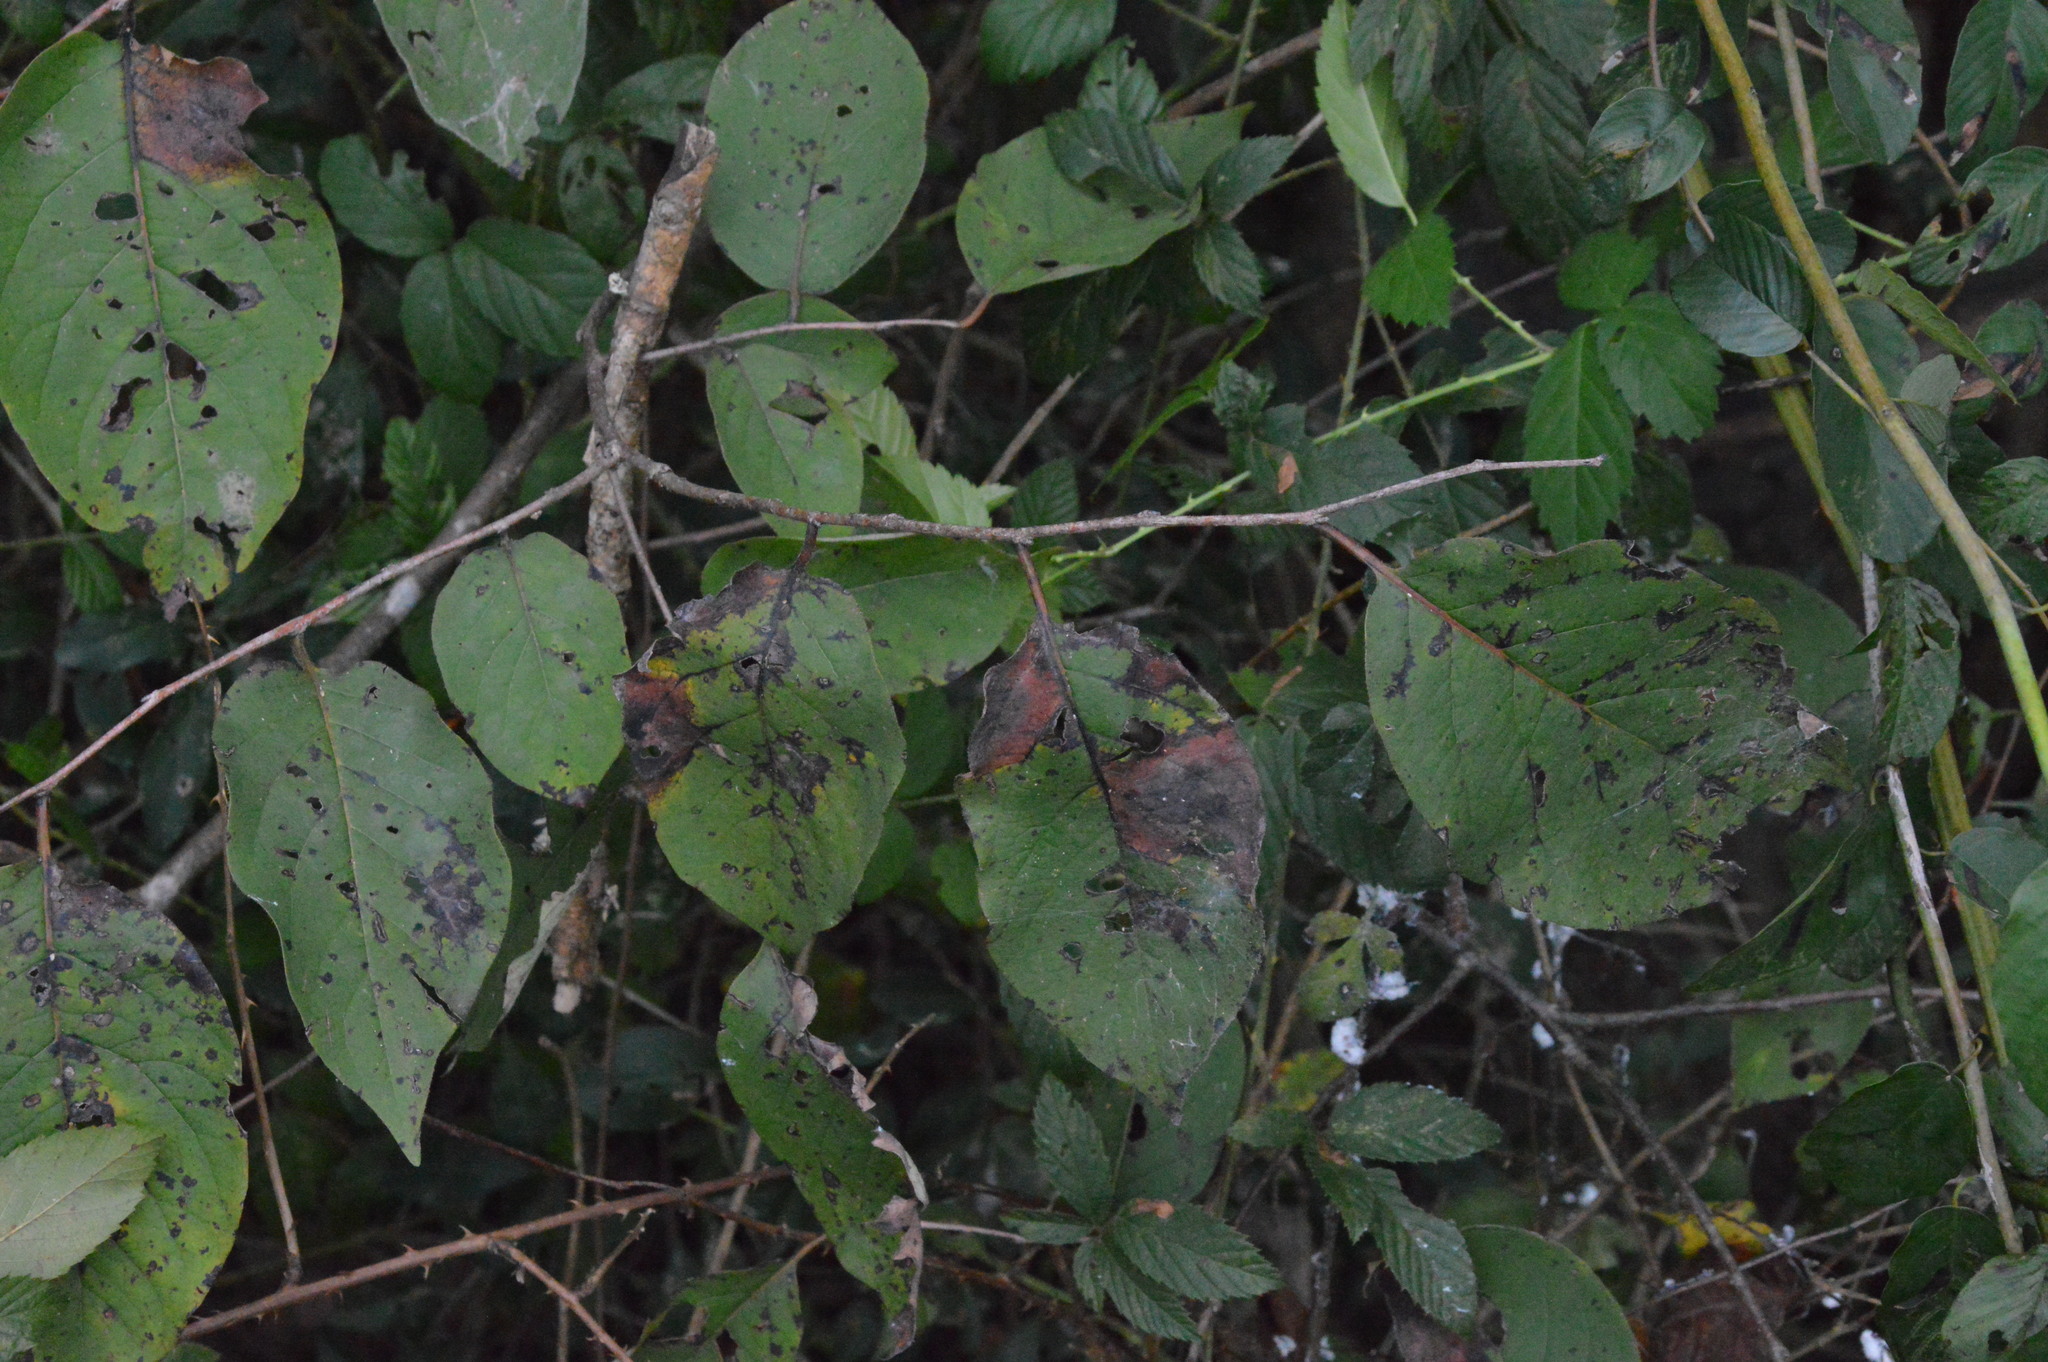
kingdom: Plantae
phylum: Tracheophyta
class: Magnoliopsida
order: Ericales
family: Ebenaceae
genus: Diospyros
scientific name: Diospyros virginiana
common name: Persimmon
